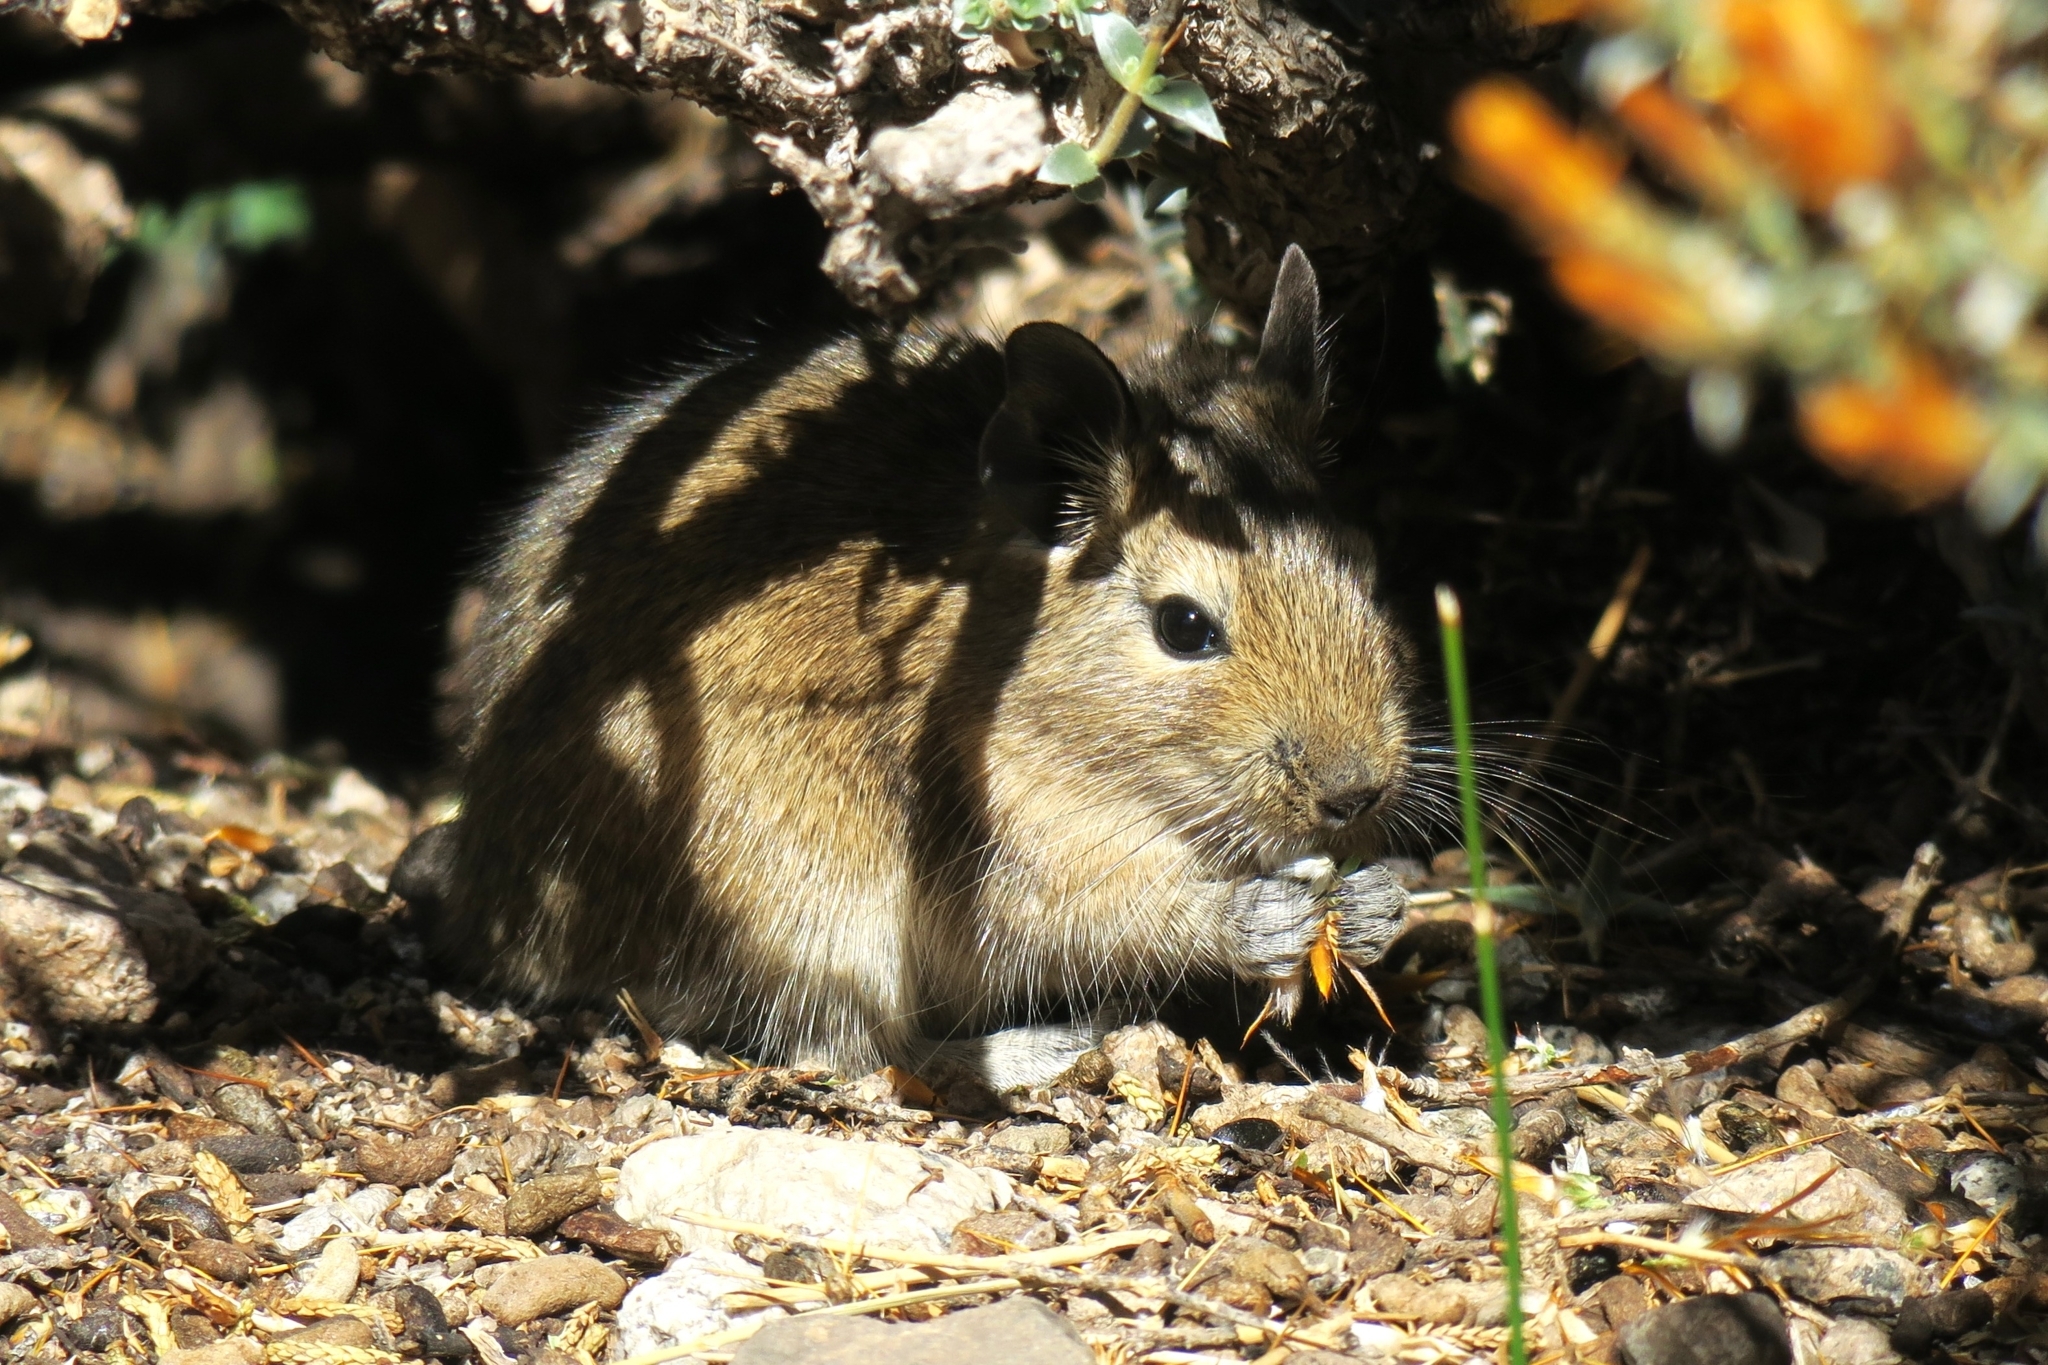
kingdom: Animalia
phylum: Chordata
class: Mammalia
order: Rodentia
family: Octodontidae
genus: Octodon
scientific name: Octodon degus
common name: Degu
